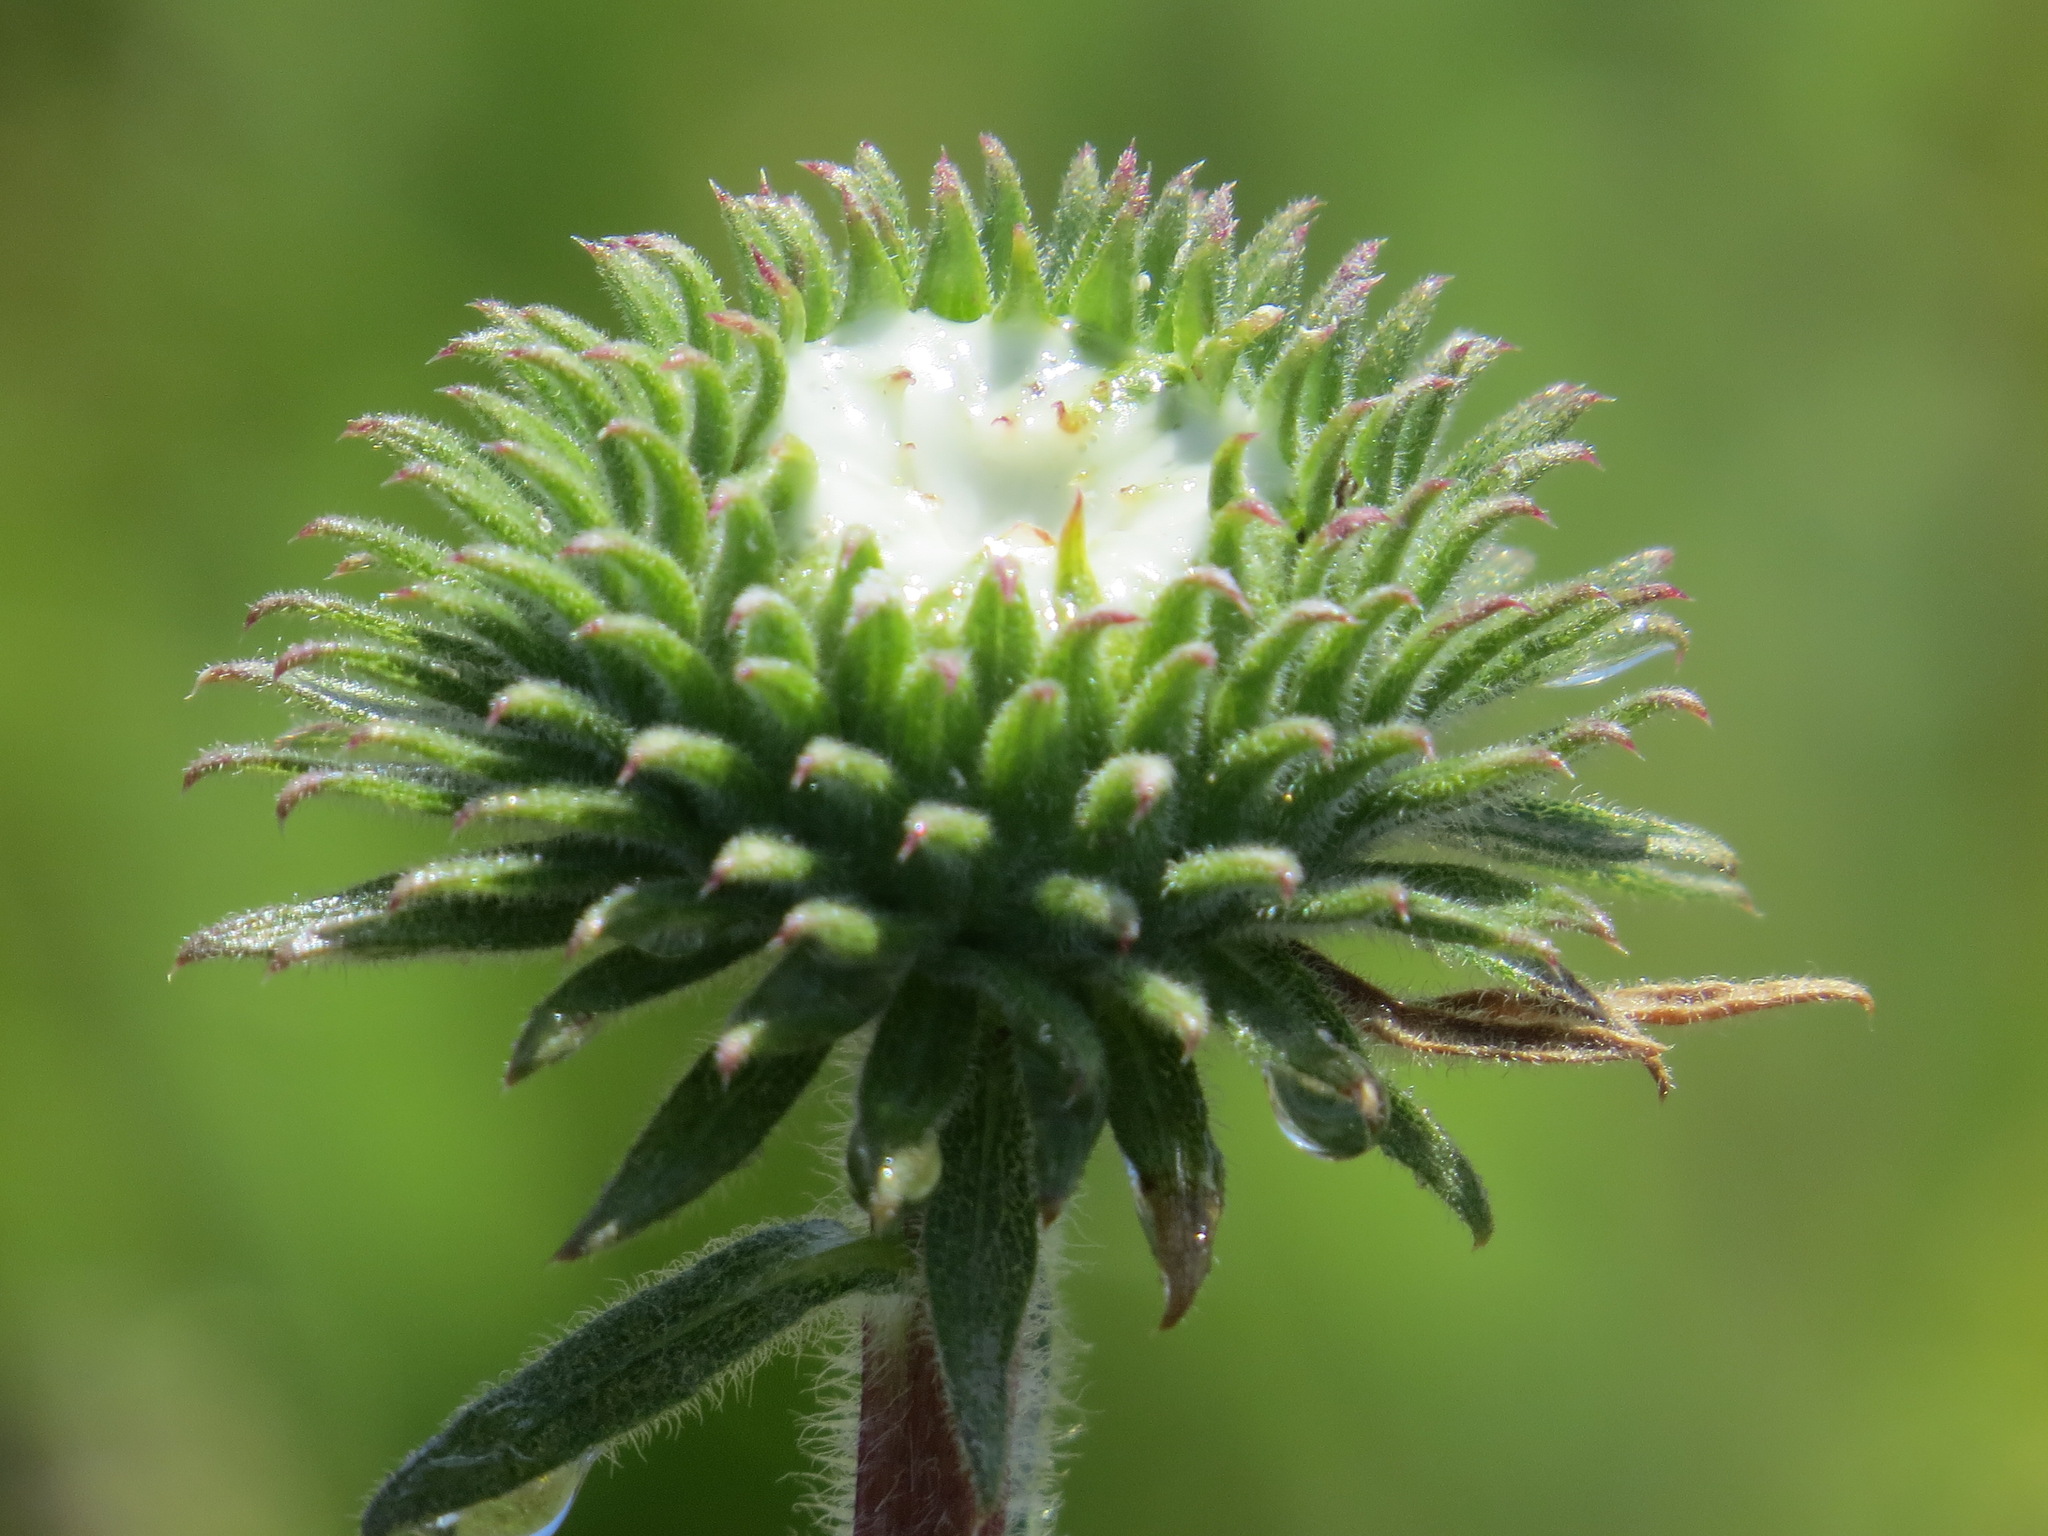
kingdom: Plantae
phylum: Tracheophyta
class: Magnoliopsida
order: Asterales
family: Asteraceae
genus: Grindelia
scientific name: Grindelia hirsutula
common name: Hairy gumweed
